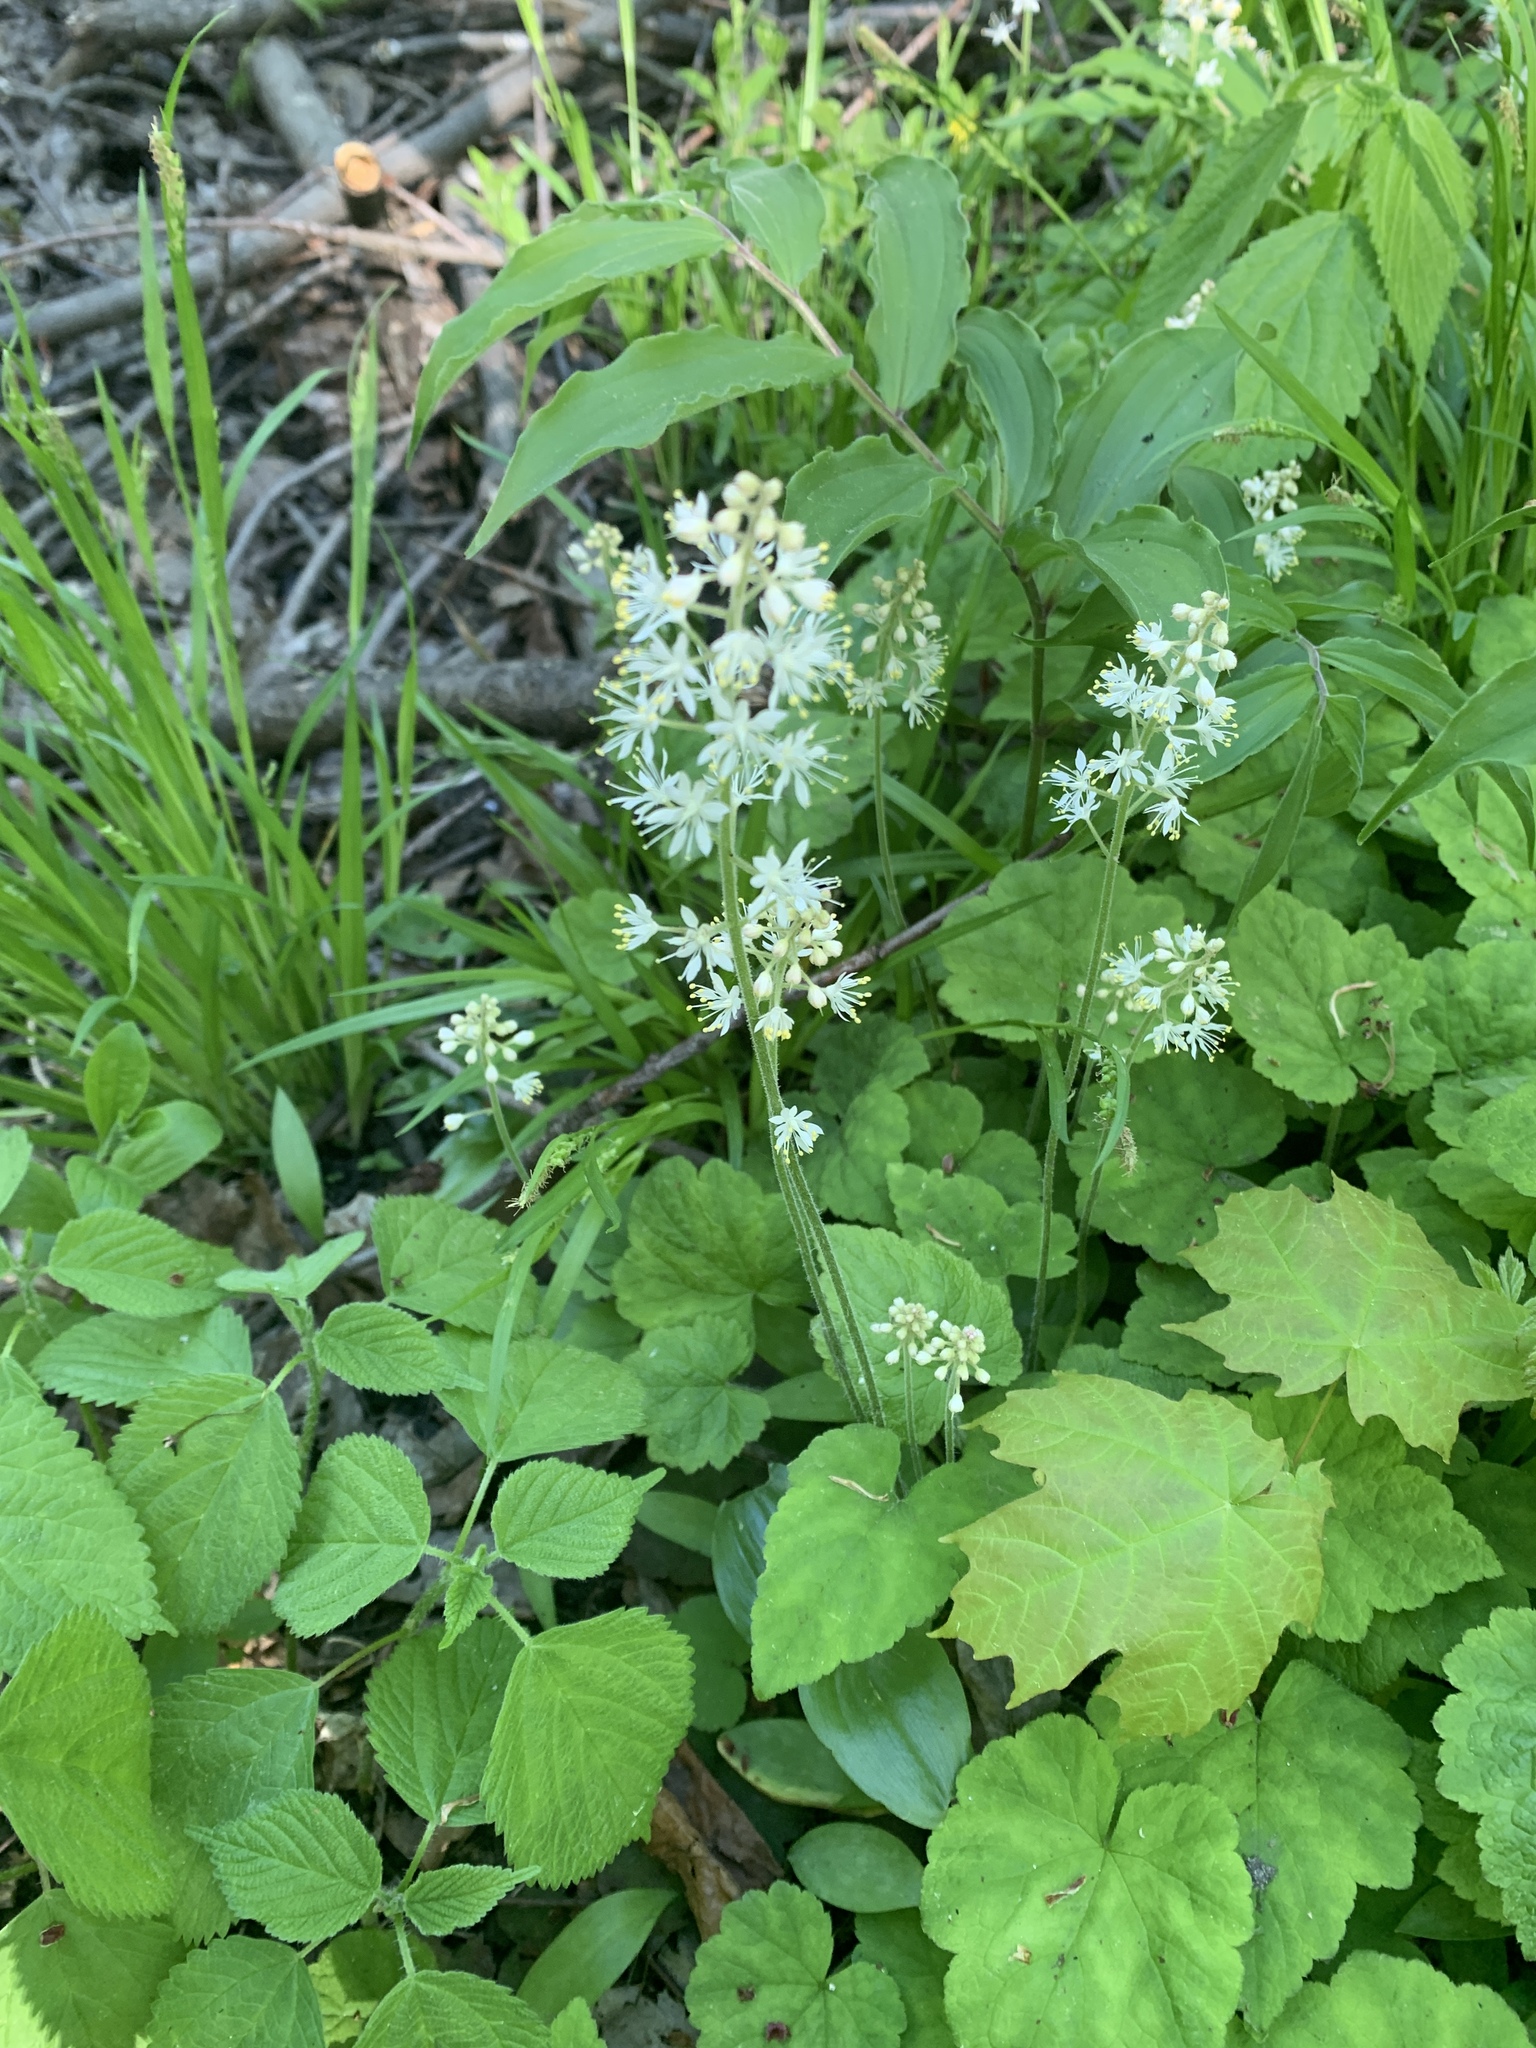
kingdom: Plantae
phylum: Tracheophyta
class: Magnoliopsida
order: Saxifragales
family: Saxifragaceae
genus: Tiarella
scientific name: Tiarella stolonifera
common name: Stoloniferous foamflower
